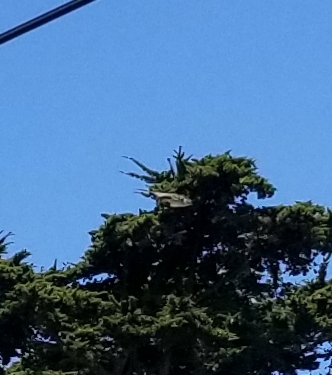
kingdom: Animalia
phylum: Chordata
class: Aves
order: Passeriformes
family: Mimidae
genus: Mimus
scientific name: Mimus polyglottos
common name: Northern mockingbird
